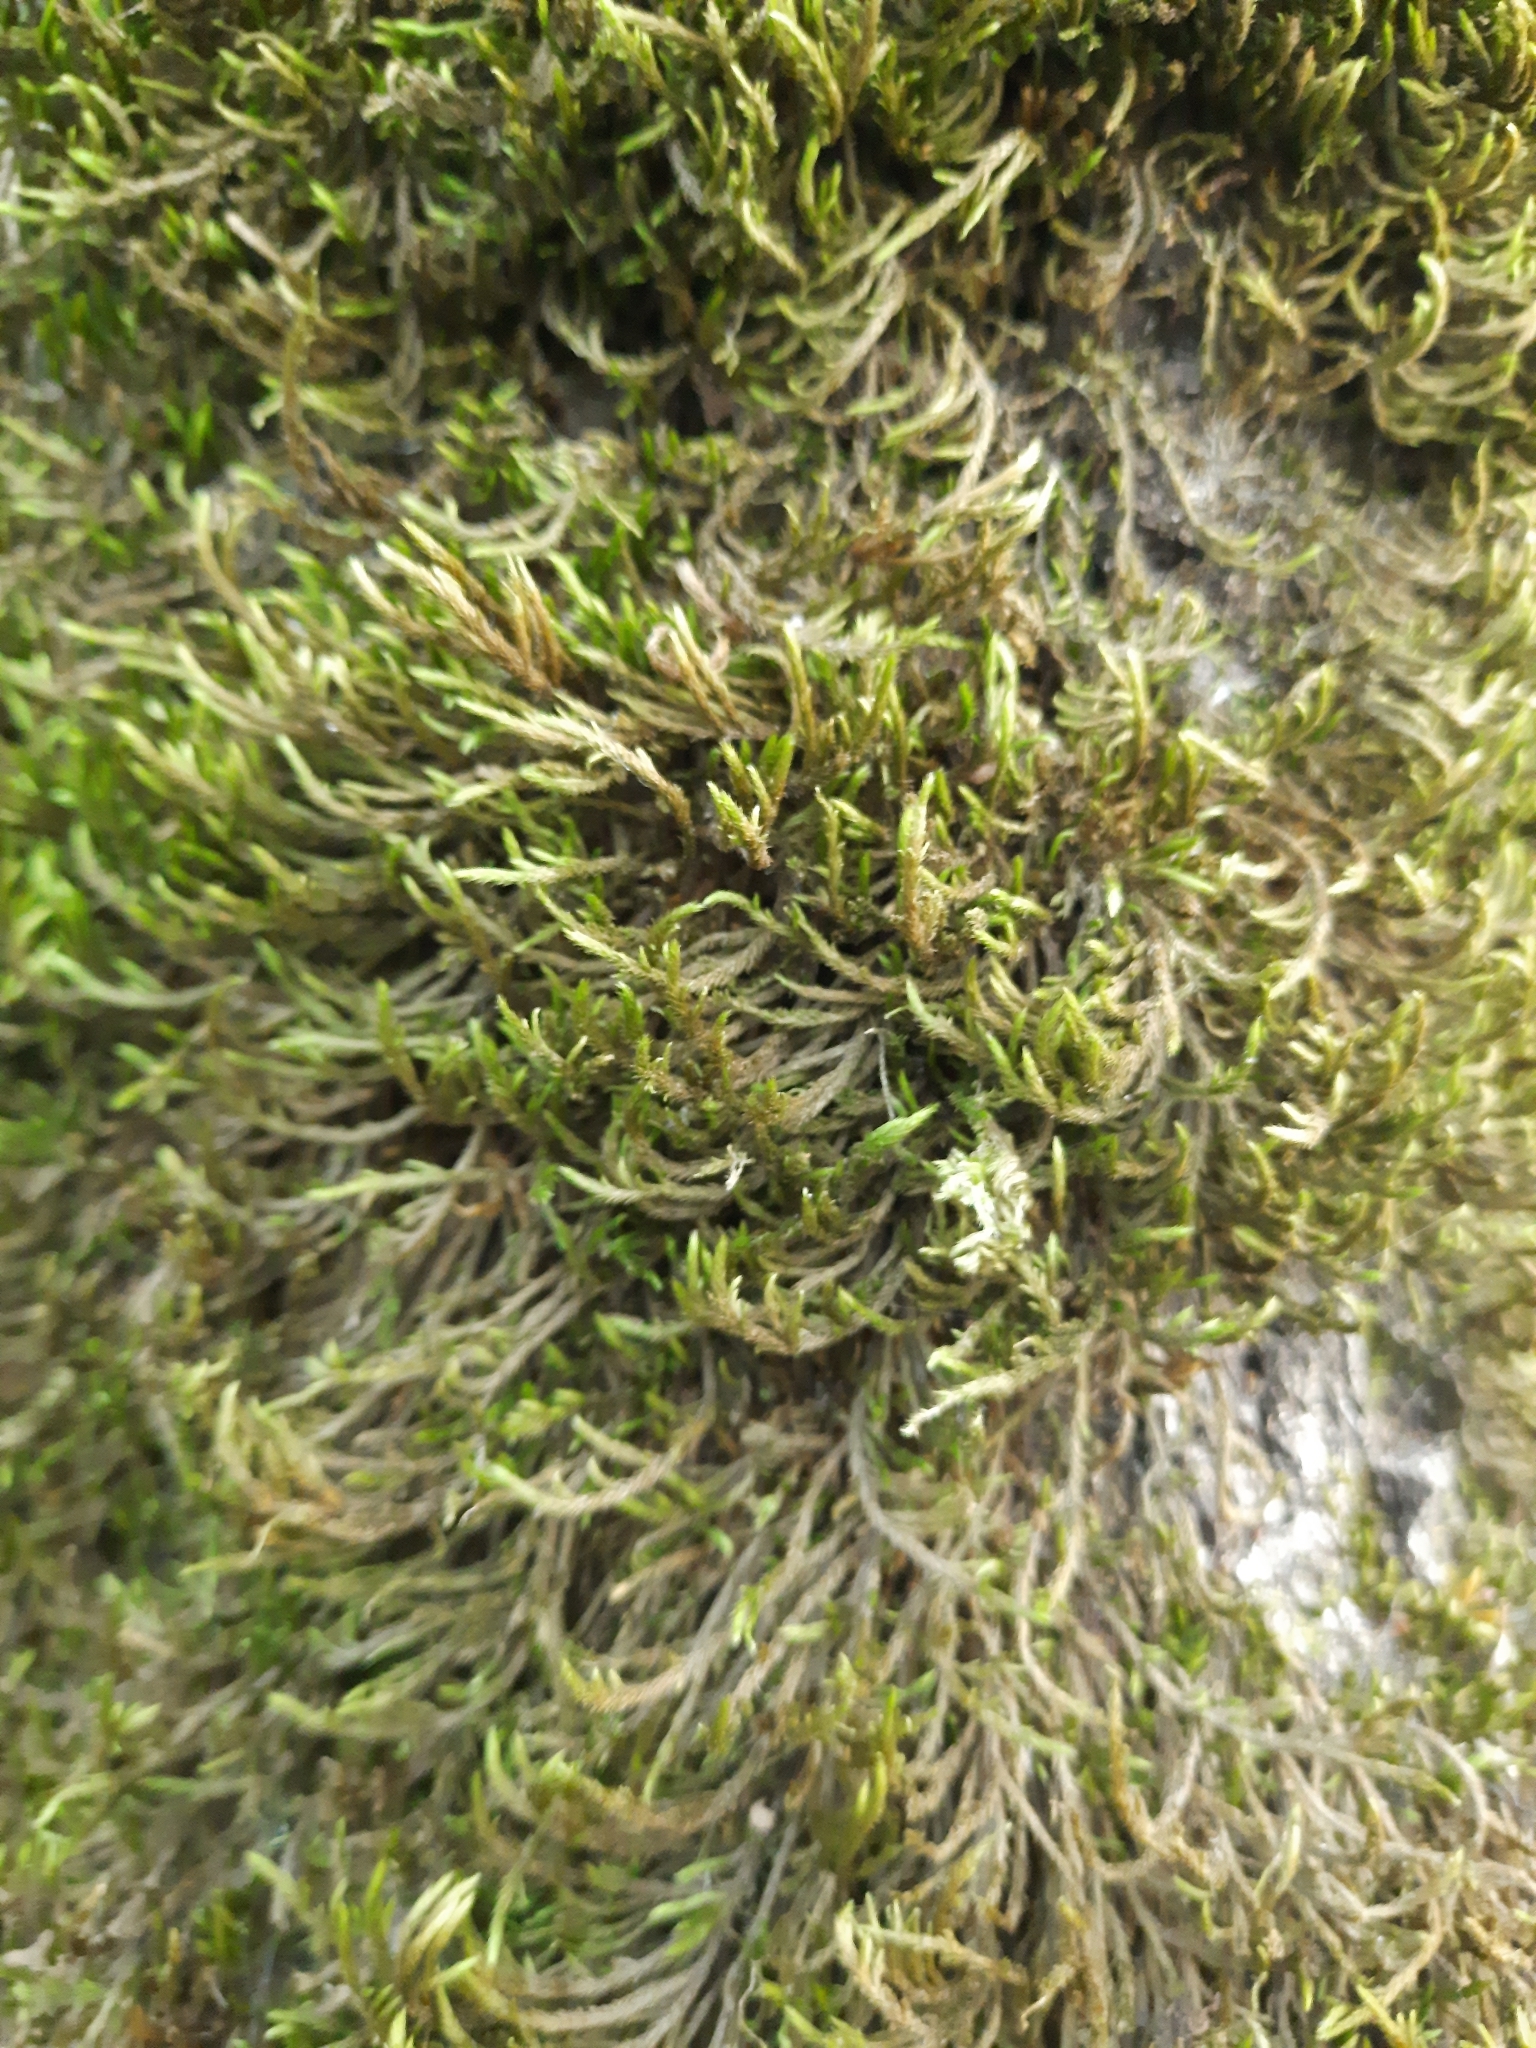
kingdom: Plantae
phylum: Bryophyta
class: Bryopsida
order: Hypnales
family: Leucodontaceae
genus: Leucodon
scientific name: Leucodon sciuroides
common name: Squirrel-tail moss
